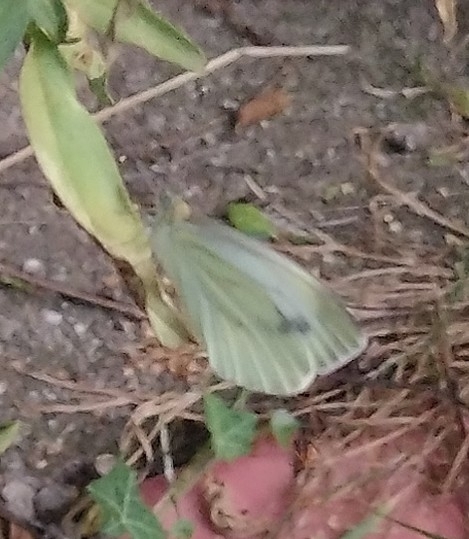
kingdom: Animalia
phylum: Arthropoda
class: Insecta
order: Lepidoptera
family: Pieridae
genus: Pieris
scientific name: Pieris napi
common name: Green-veined white
